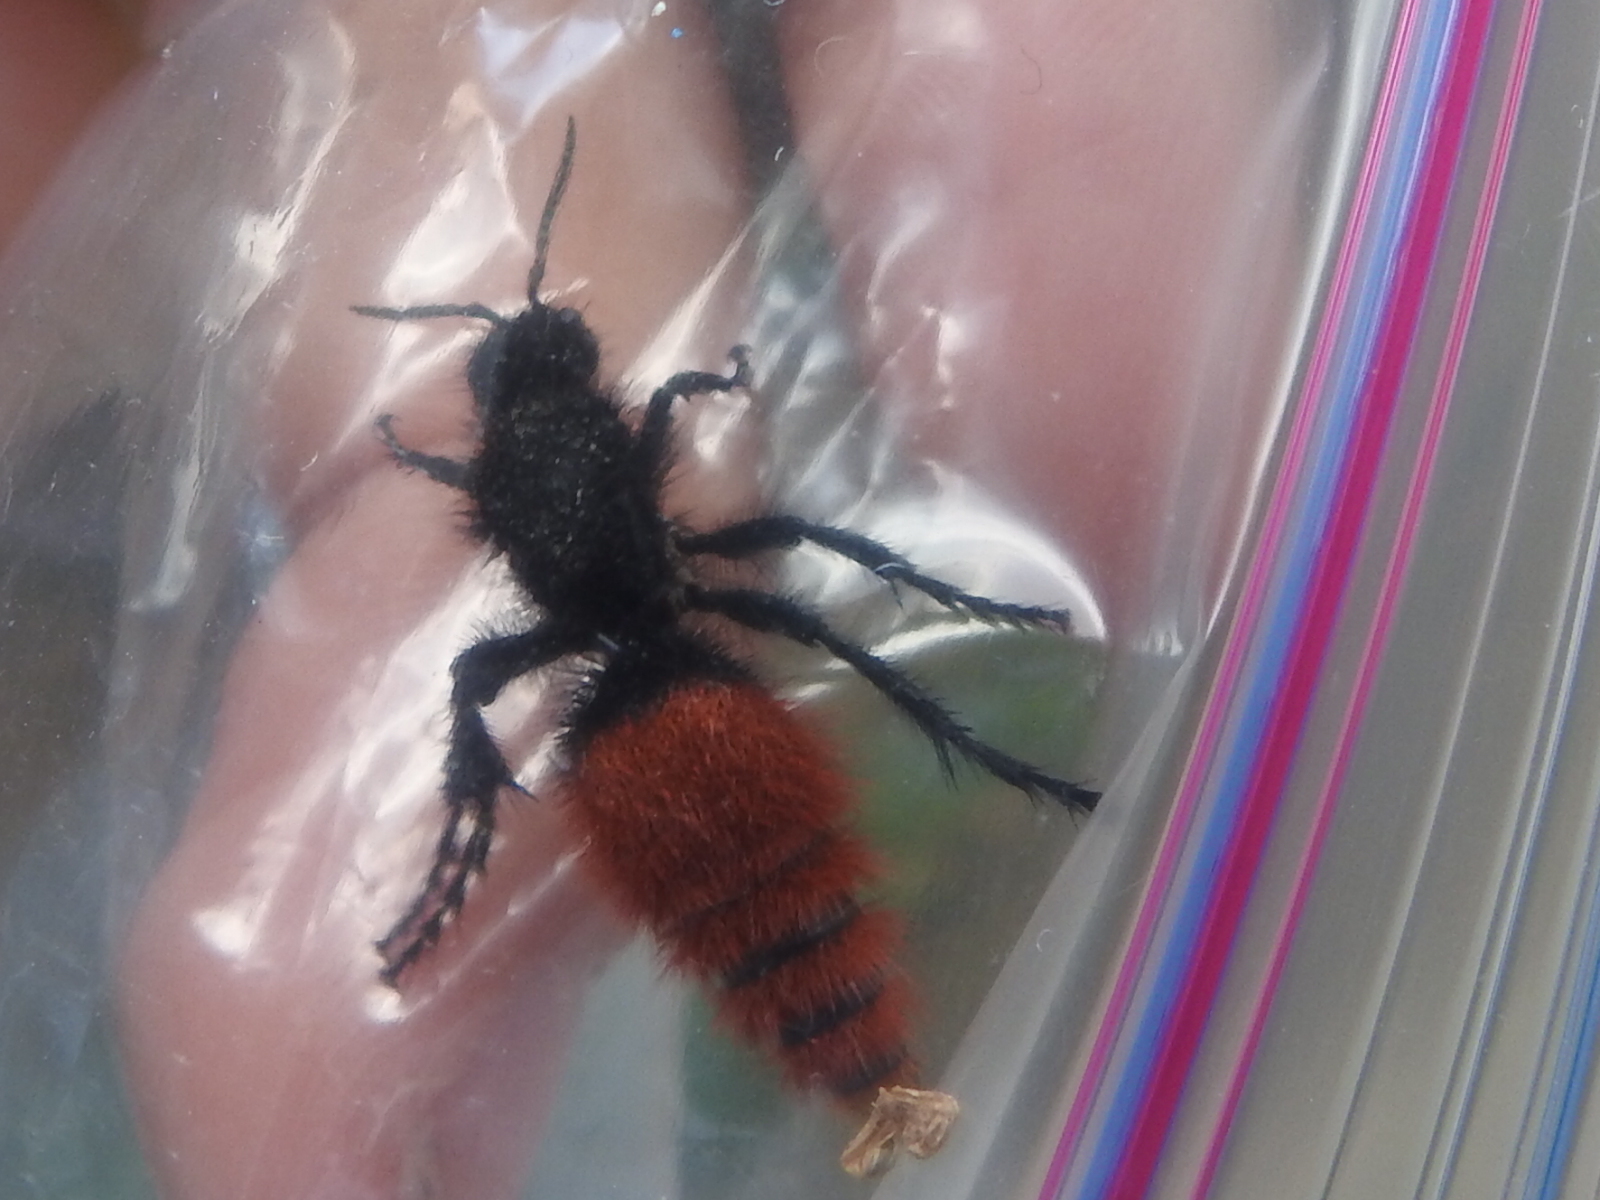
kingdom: Animalia
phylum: Arthropoda
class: Insecta
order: Hymenoptera
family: Mutillidae
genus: Dasymutilla
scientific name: Dasymutilla
